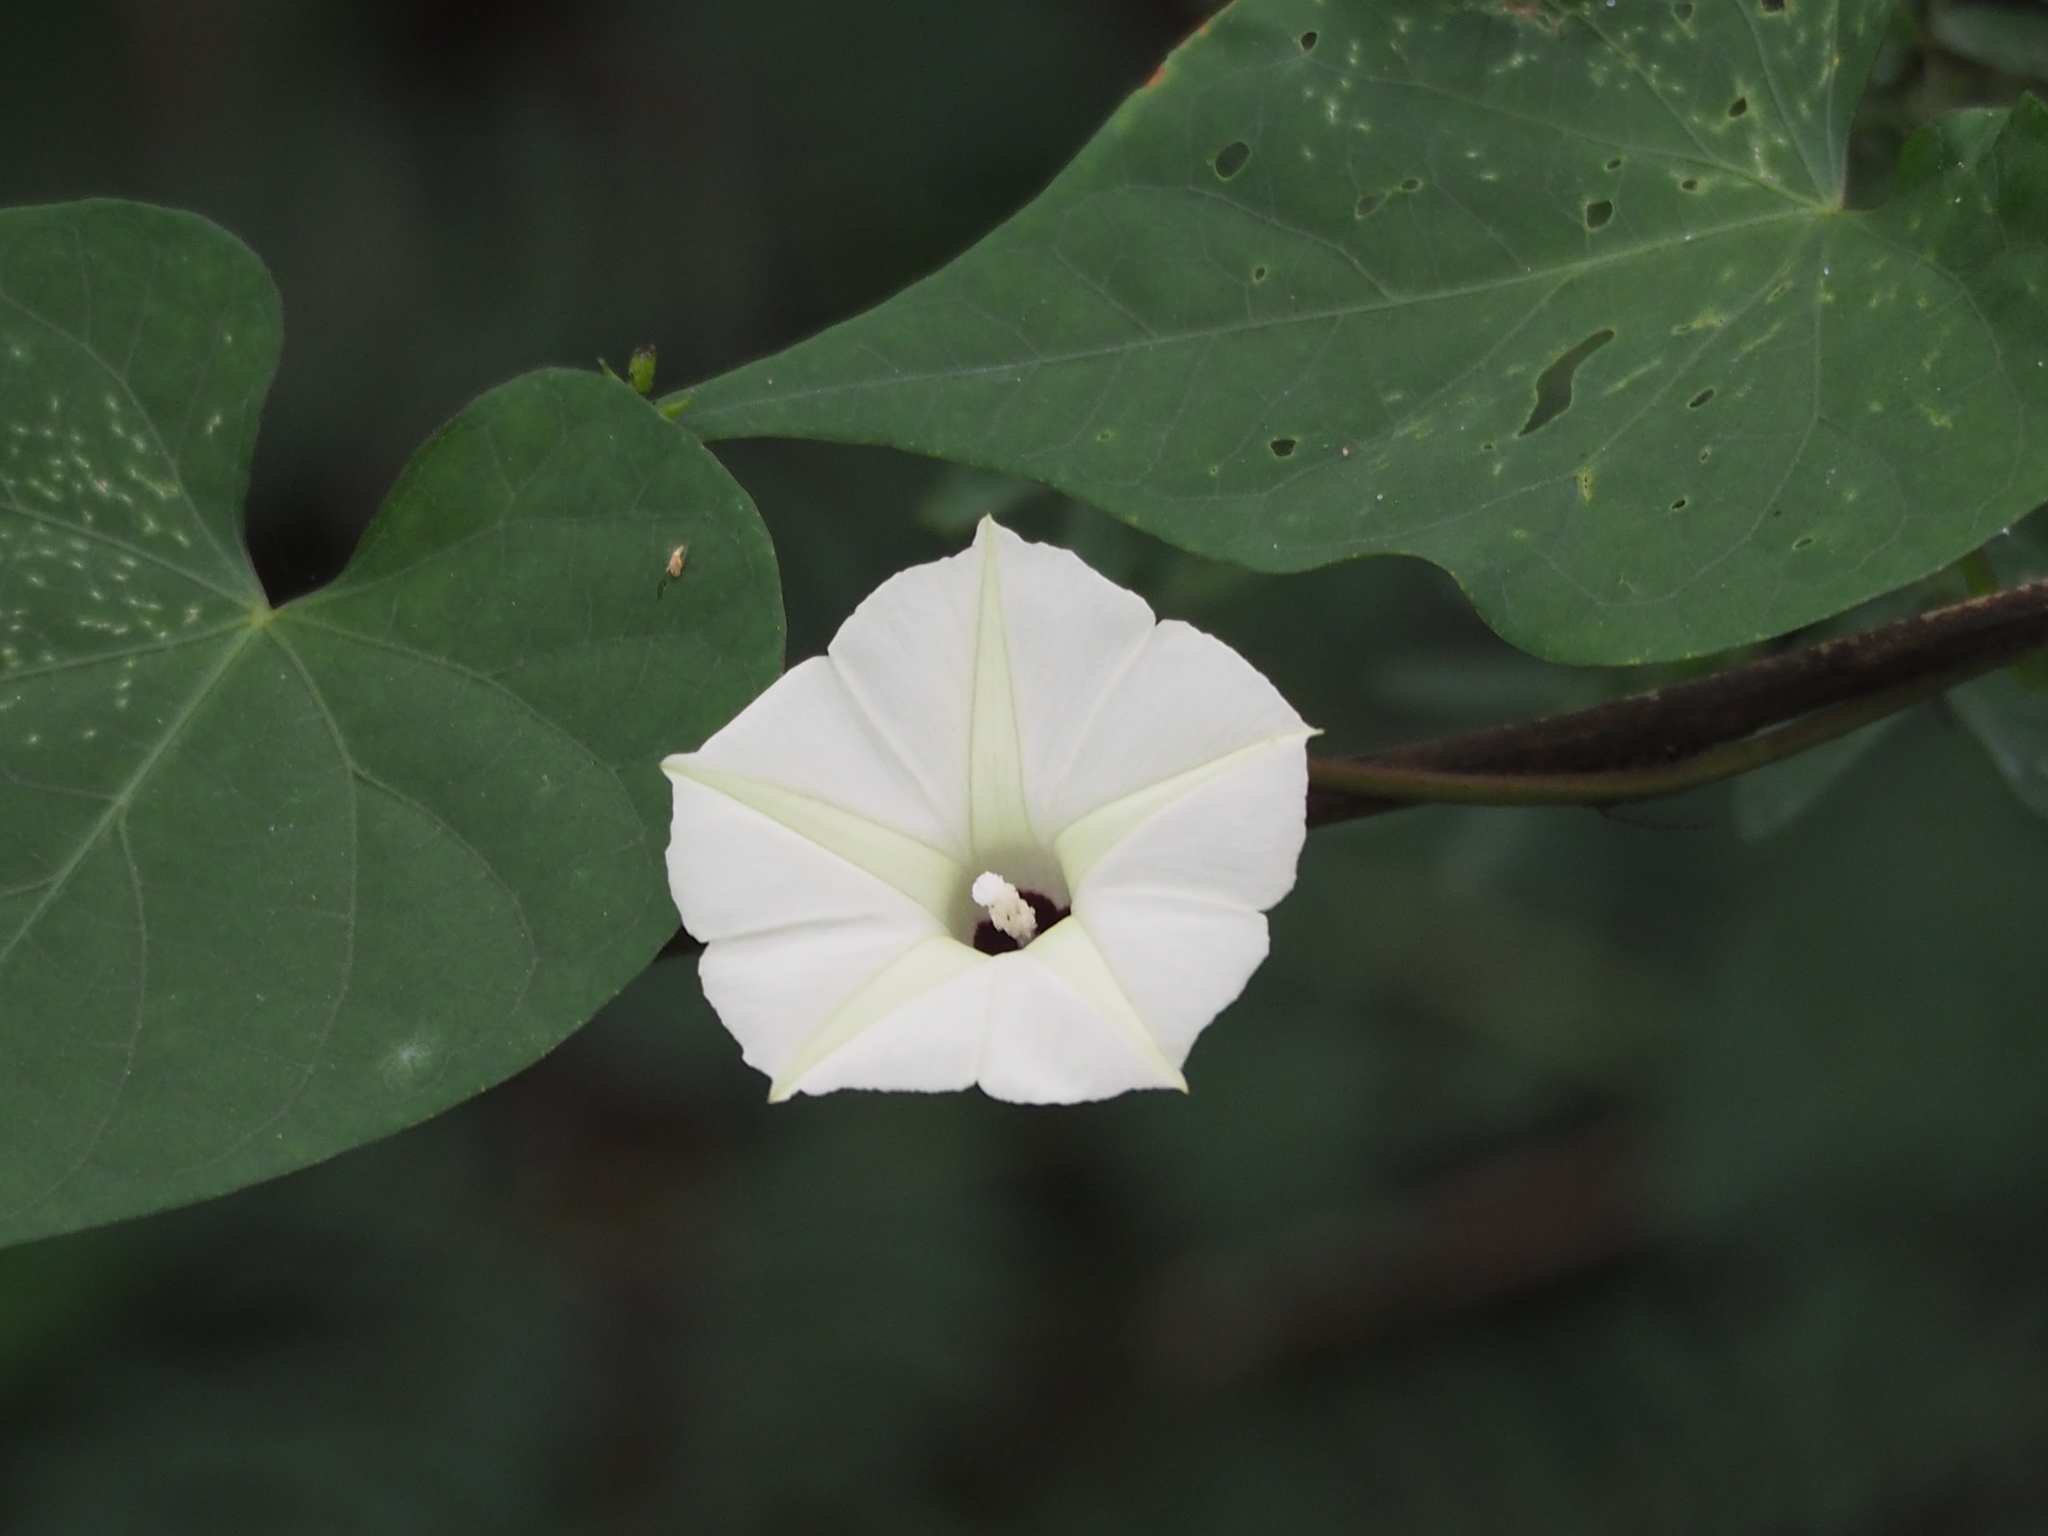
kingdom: Plantae
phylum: Tracheophyta
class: Magnoliopsida
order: Solanales
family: Convolvulaceae
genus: Ipomoea
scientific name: Ipomoea obscura
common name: Obscure morning-glory
